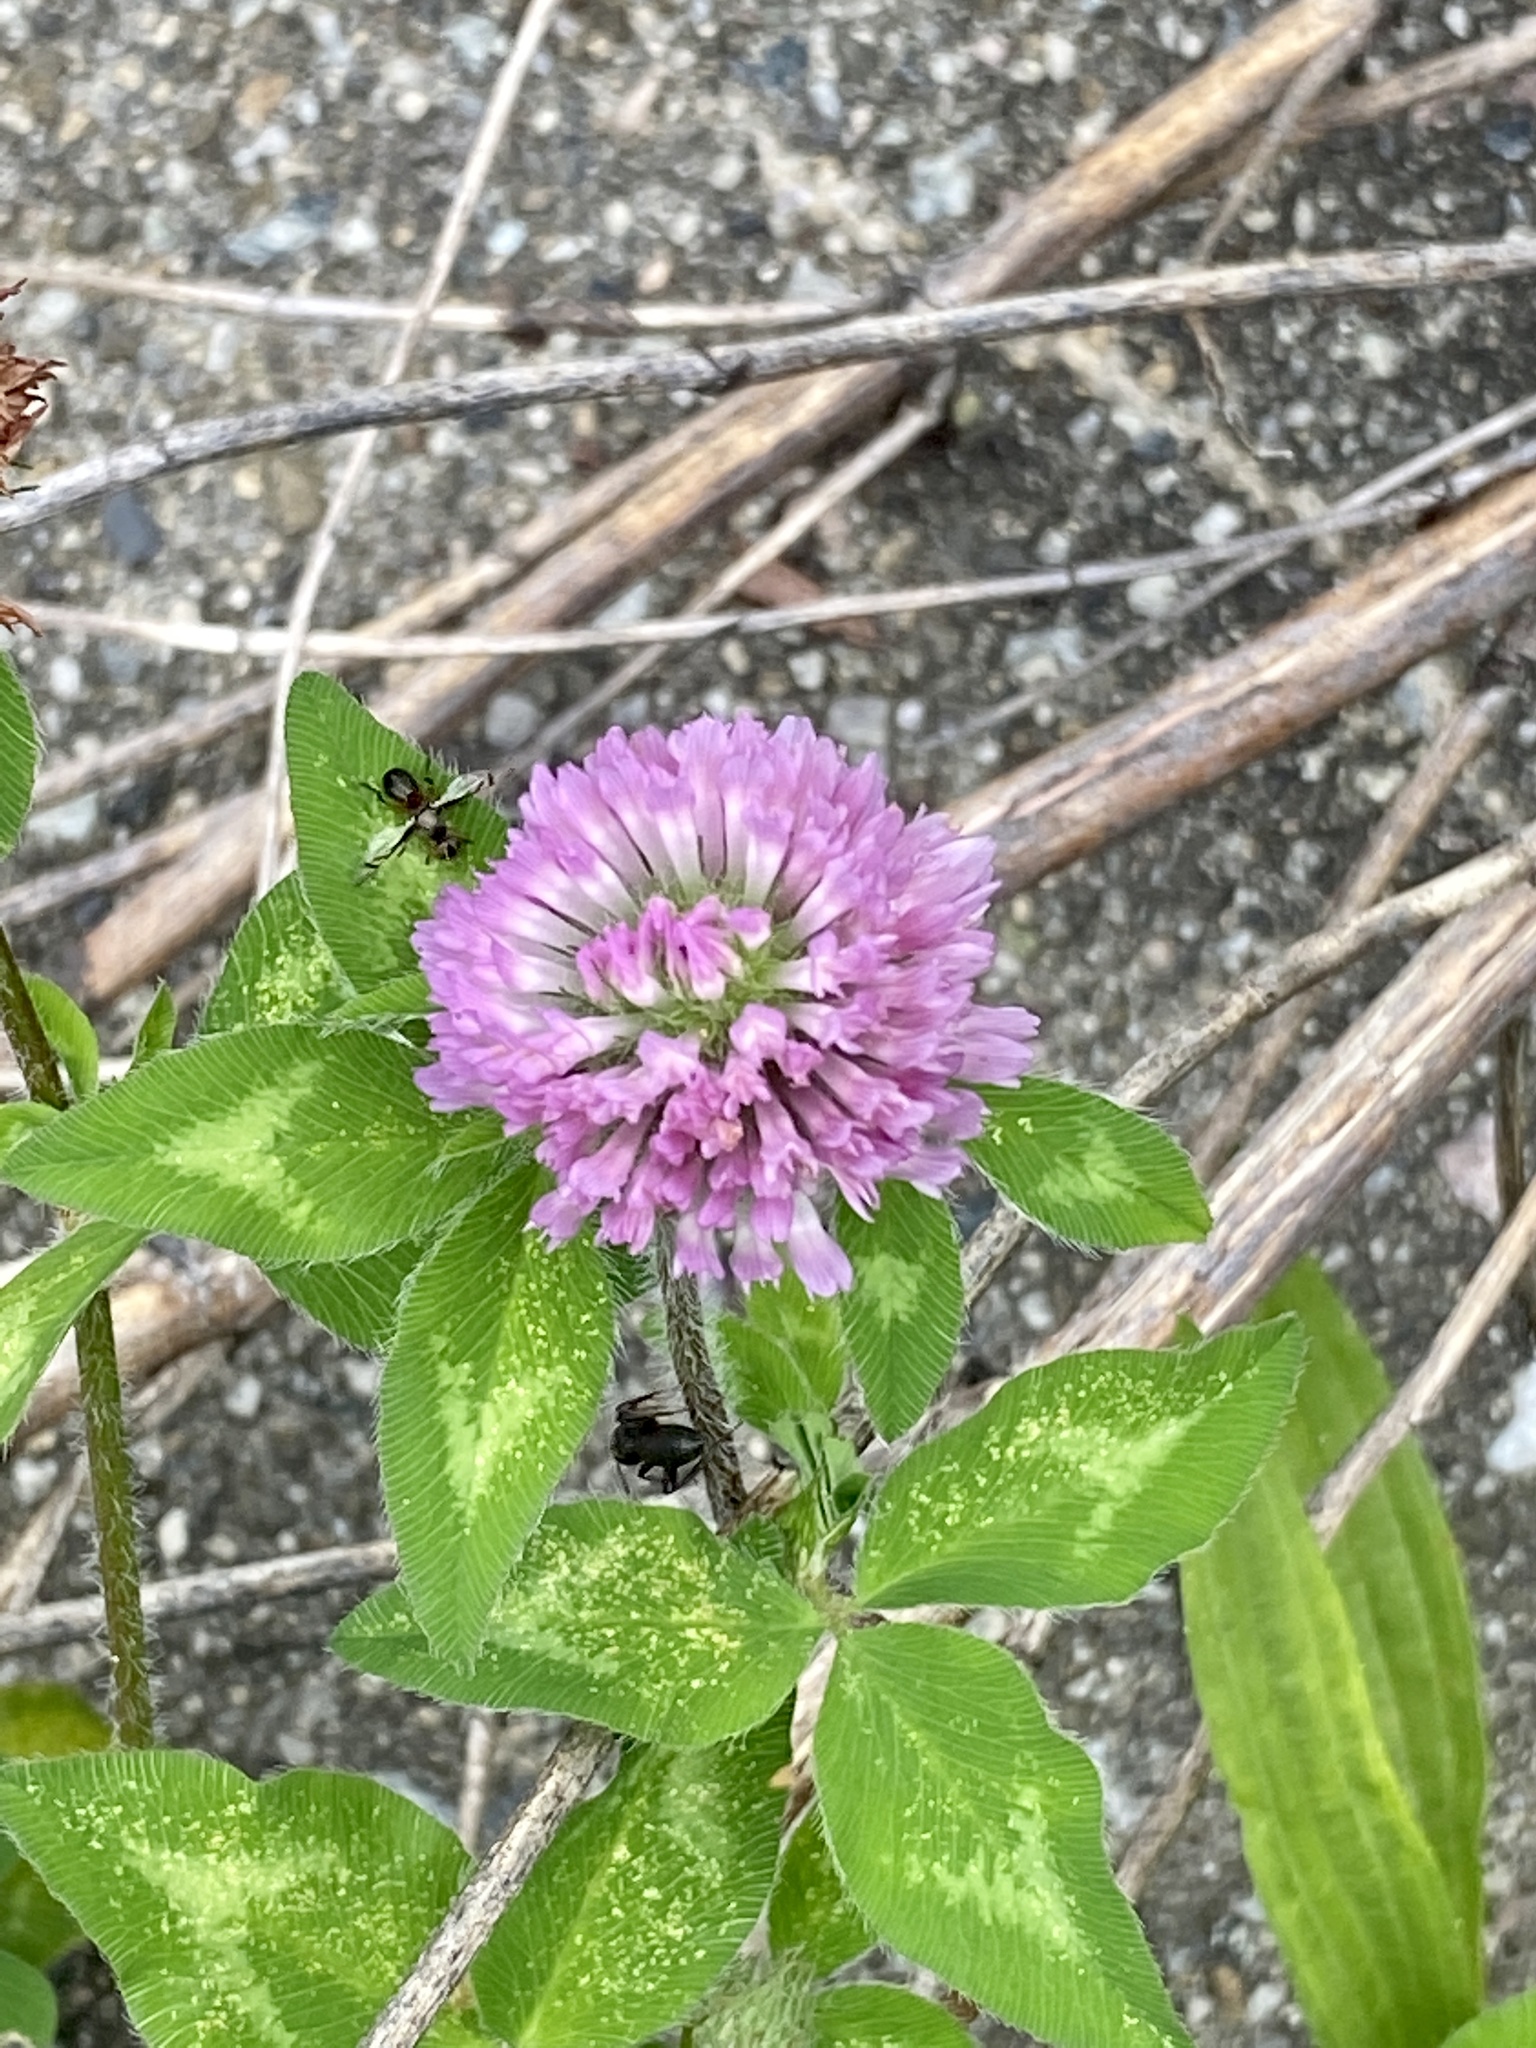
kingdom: Plantae
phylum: Tracheophyta
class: Magnoliopsida
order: Fabales
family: Fabaceae
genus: Trifolium
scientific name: Trifolium pratense
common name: Red clover
